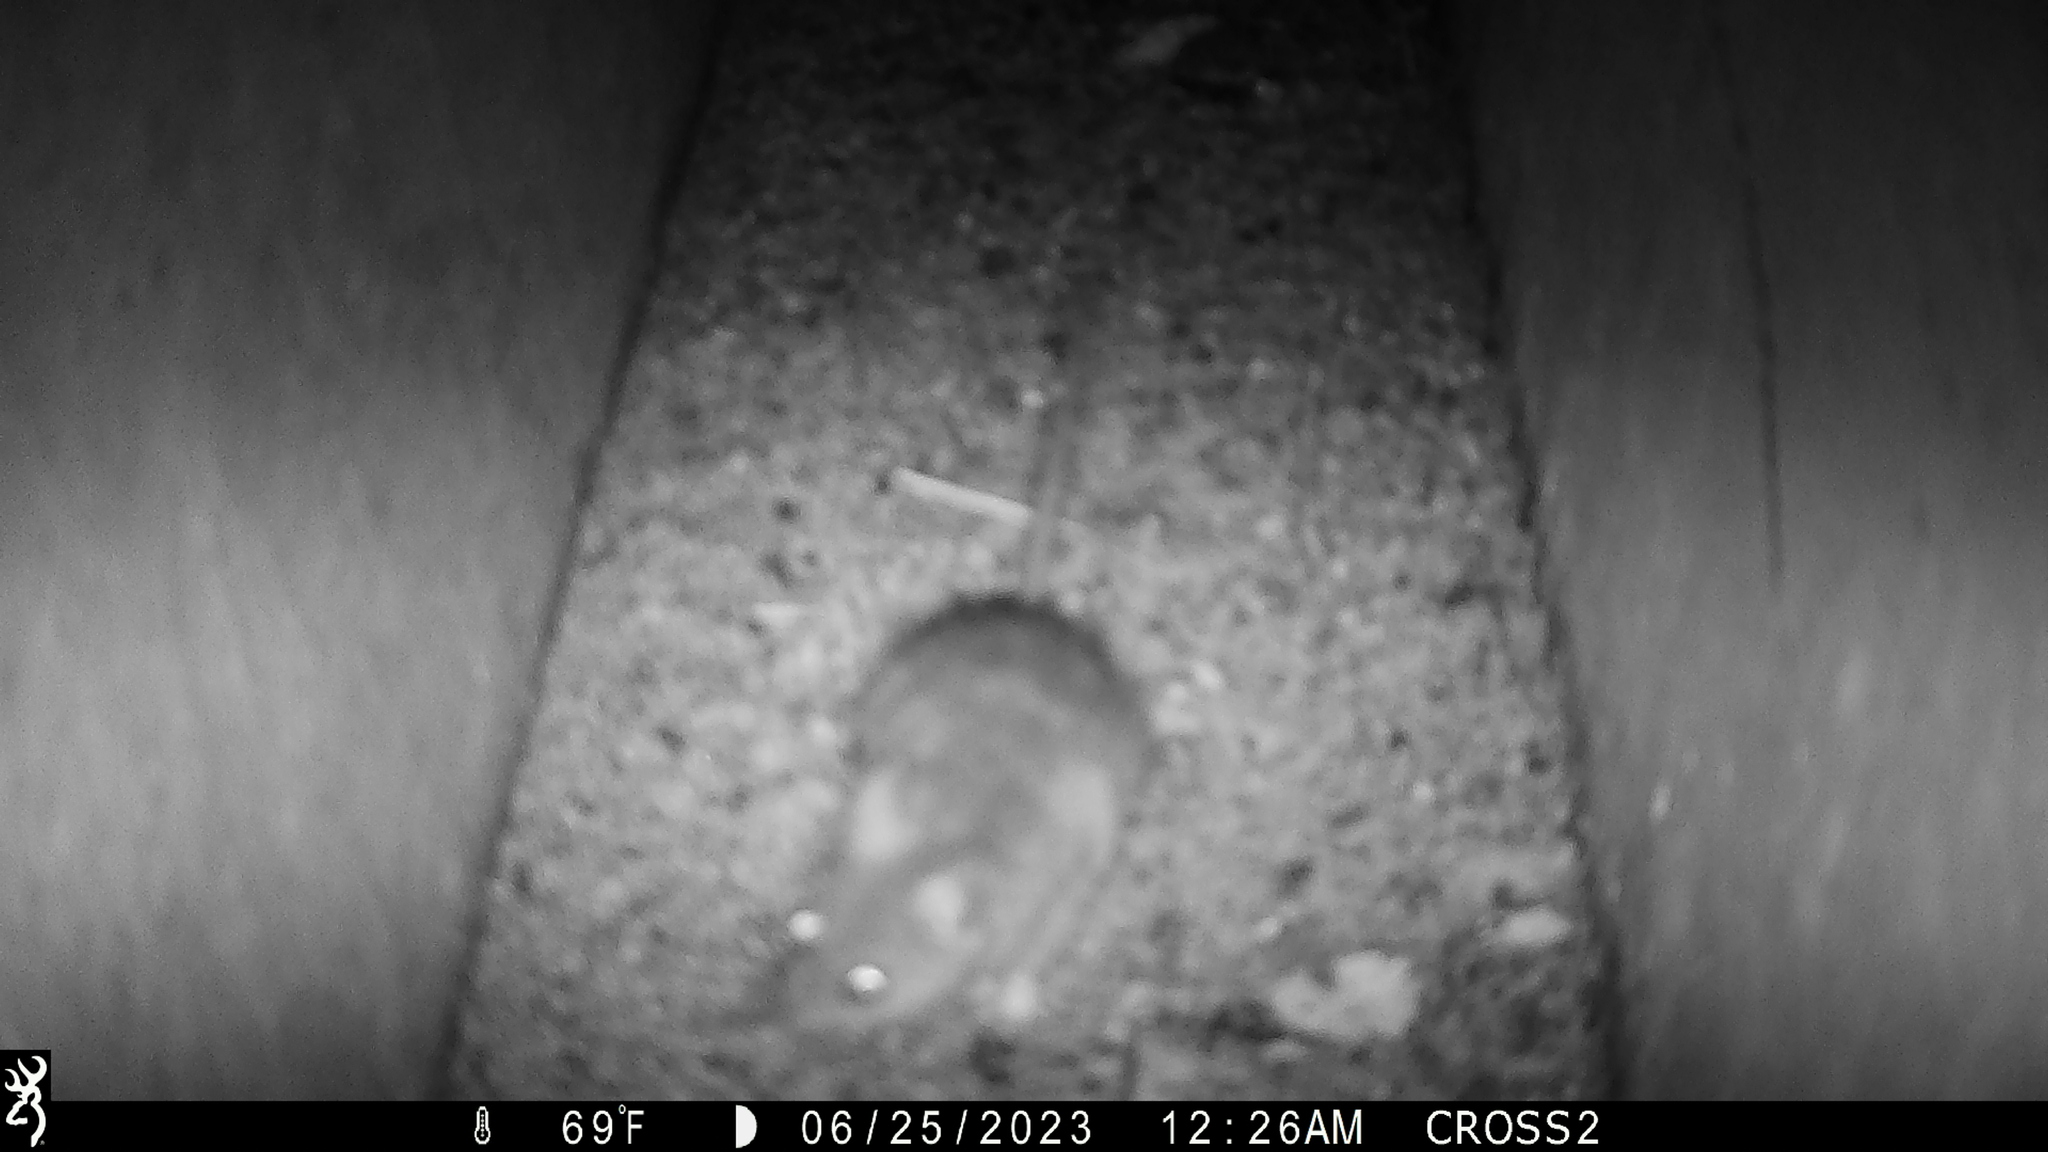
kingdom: Animalia
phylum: Chordata
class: Mammalia
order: Rodentia
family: Muridae
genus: Rattus
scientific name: Rattus norvegicus
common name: Brown rat
